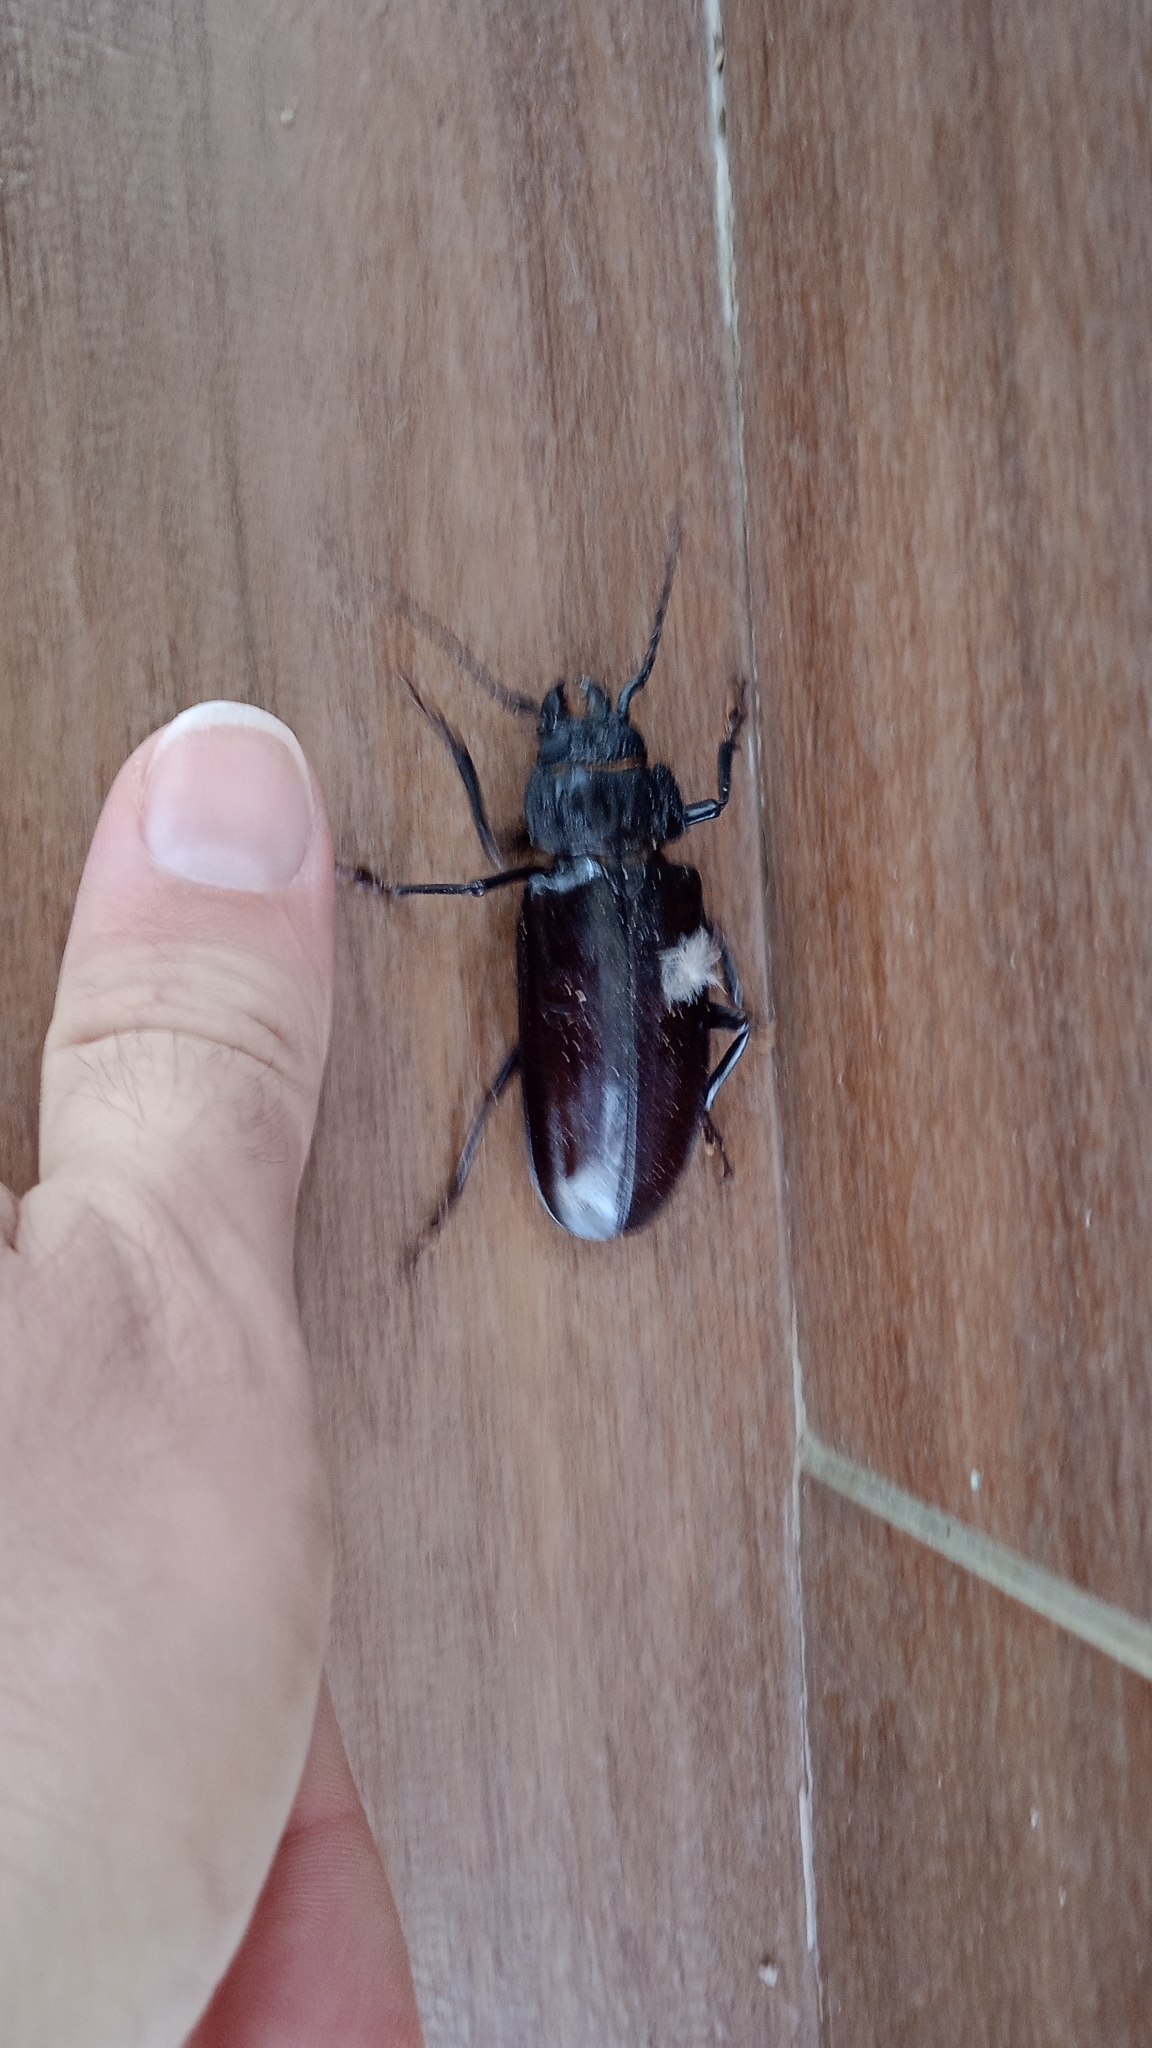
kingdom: Animalia
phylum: Arthropoda
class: Insecta
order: Coleoptera
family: Cerambycidae
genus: Mallodon
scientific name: Mallodon dasystomum
